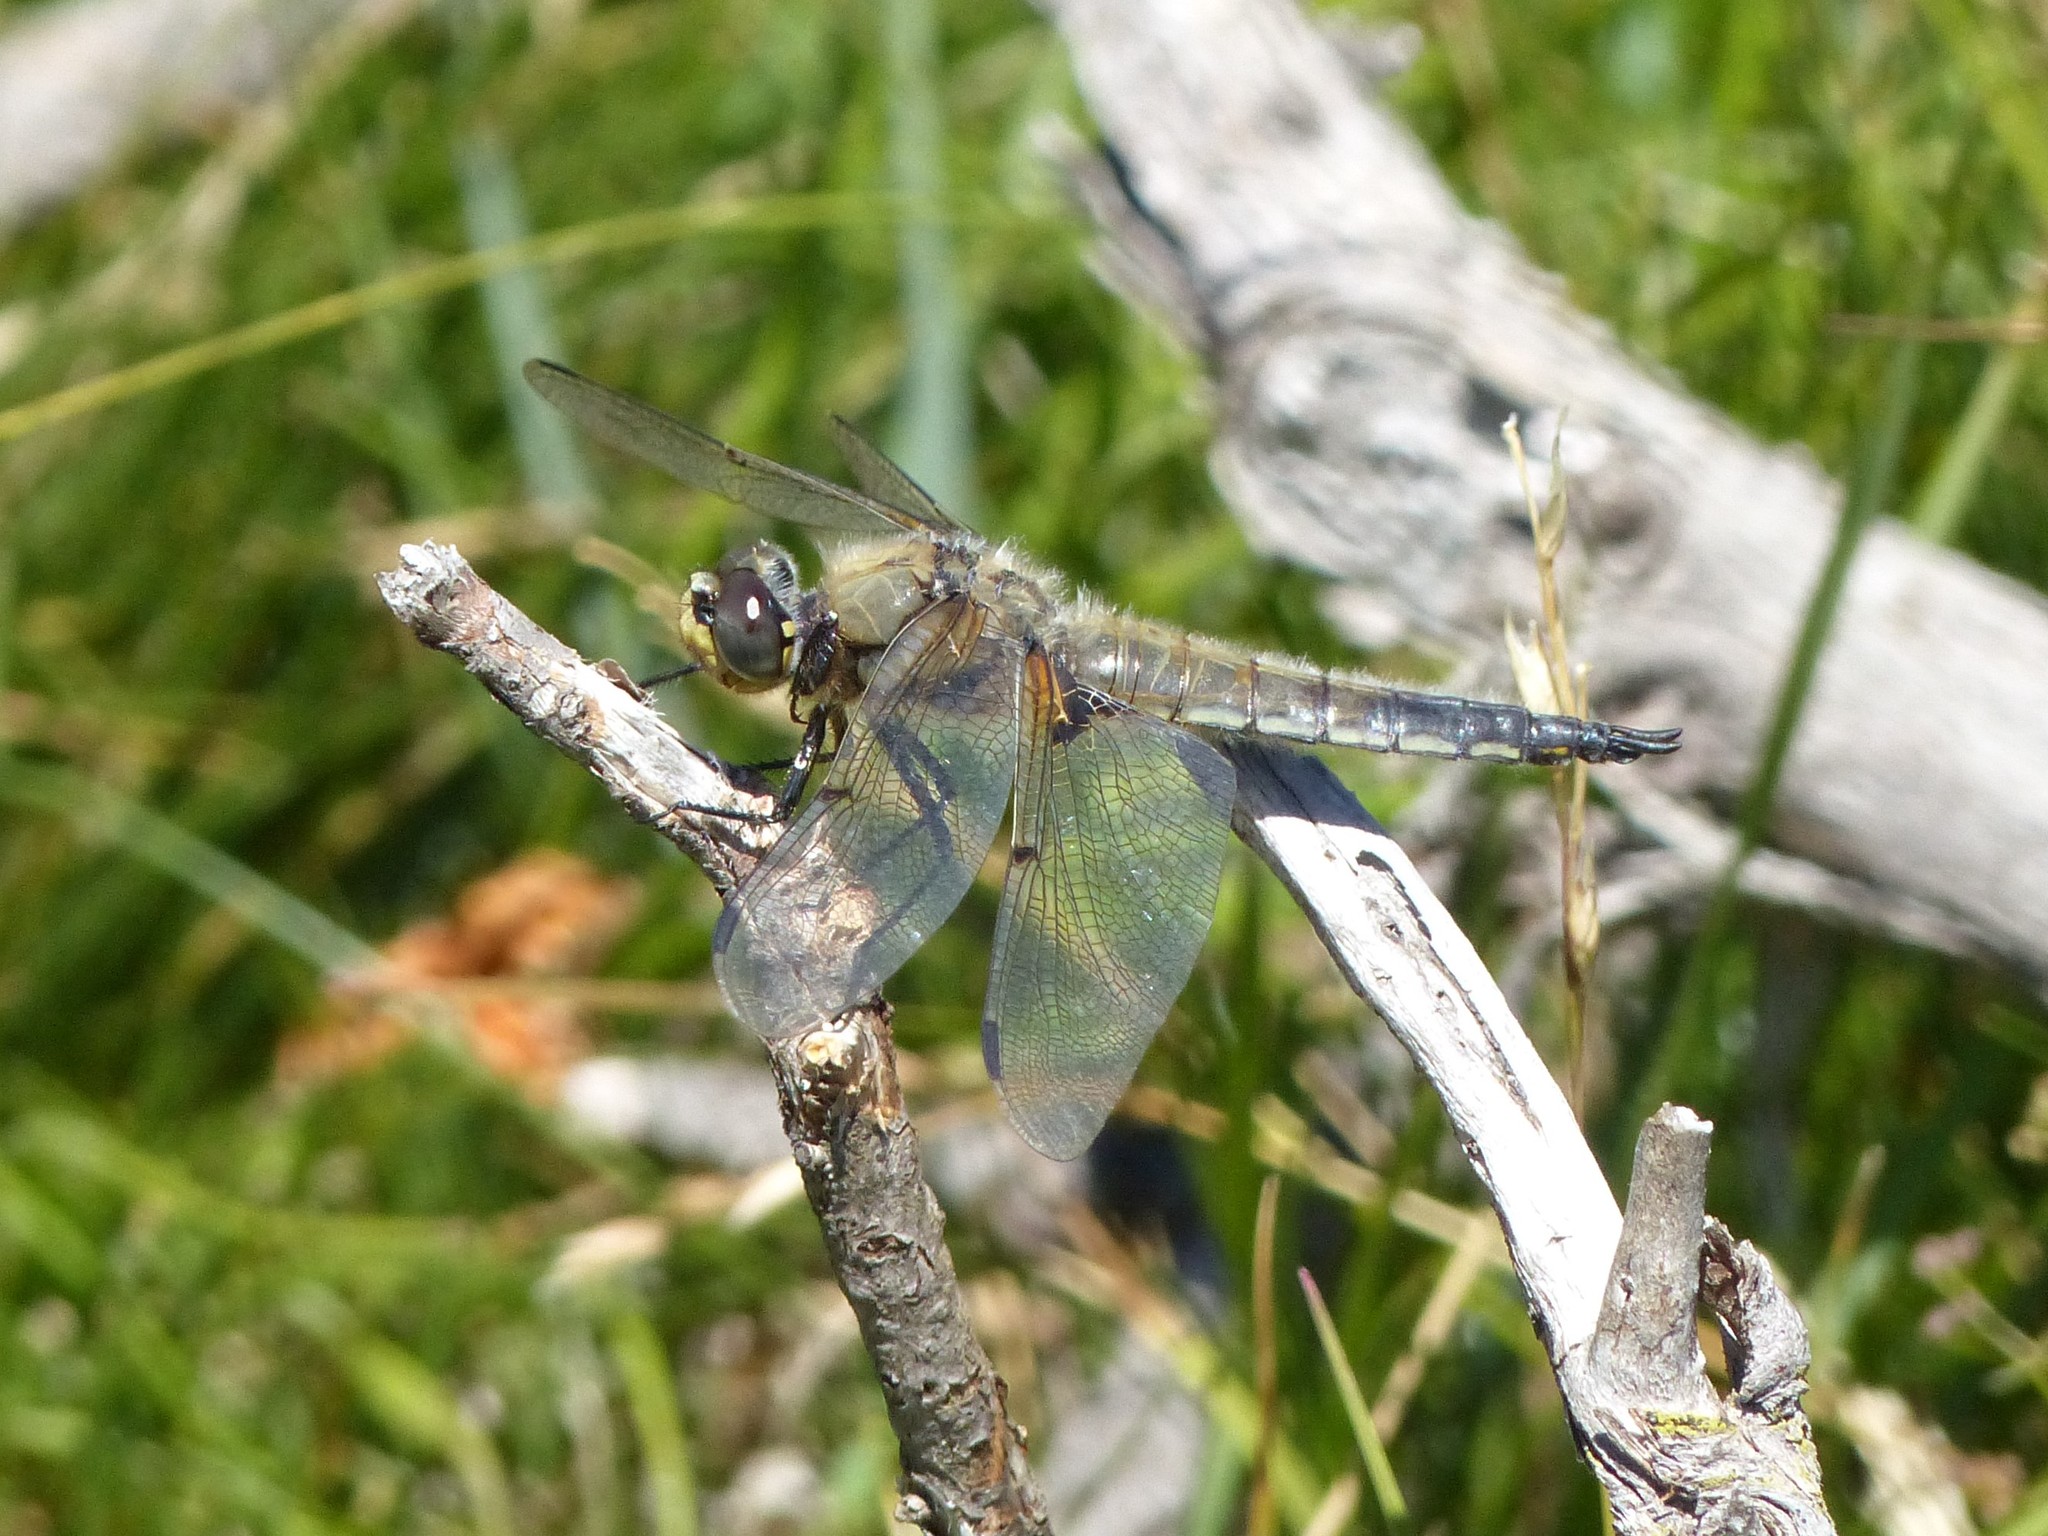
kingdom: Animalia
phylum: Arthropoda
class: Insecta
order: Odonata
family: Libellulidae
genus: Libellula
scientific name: Libellula quadrimaculata
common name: Four-spotted chaser
